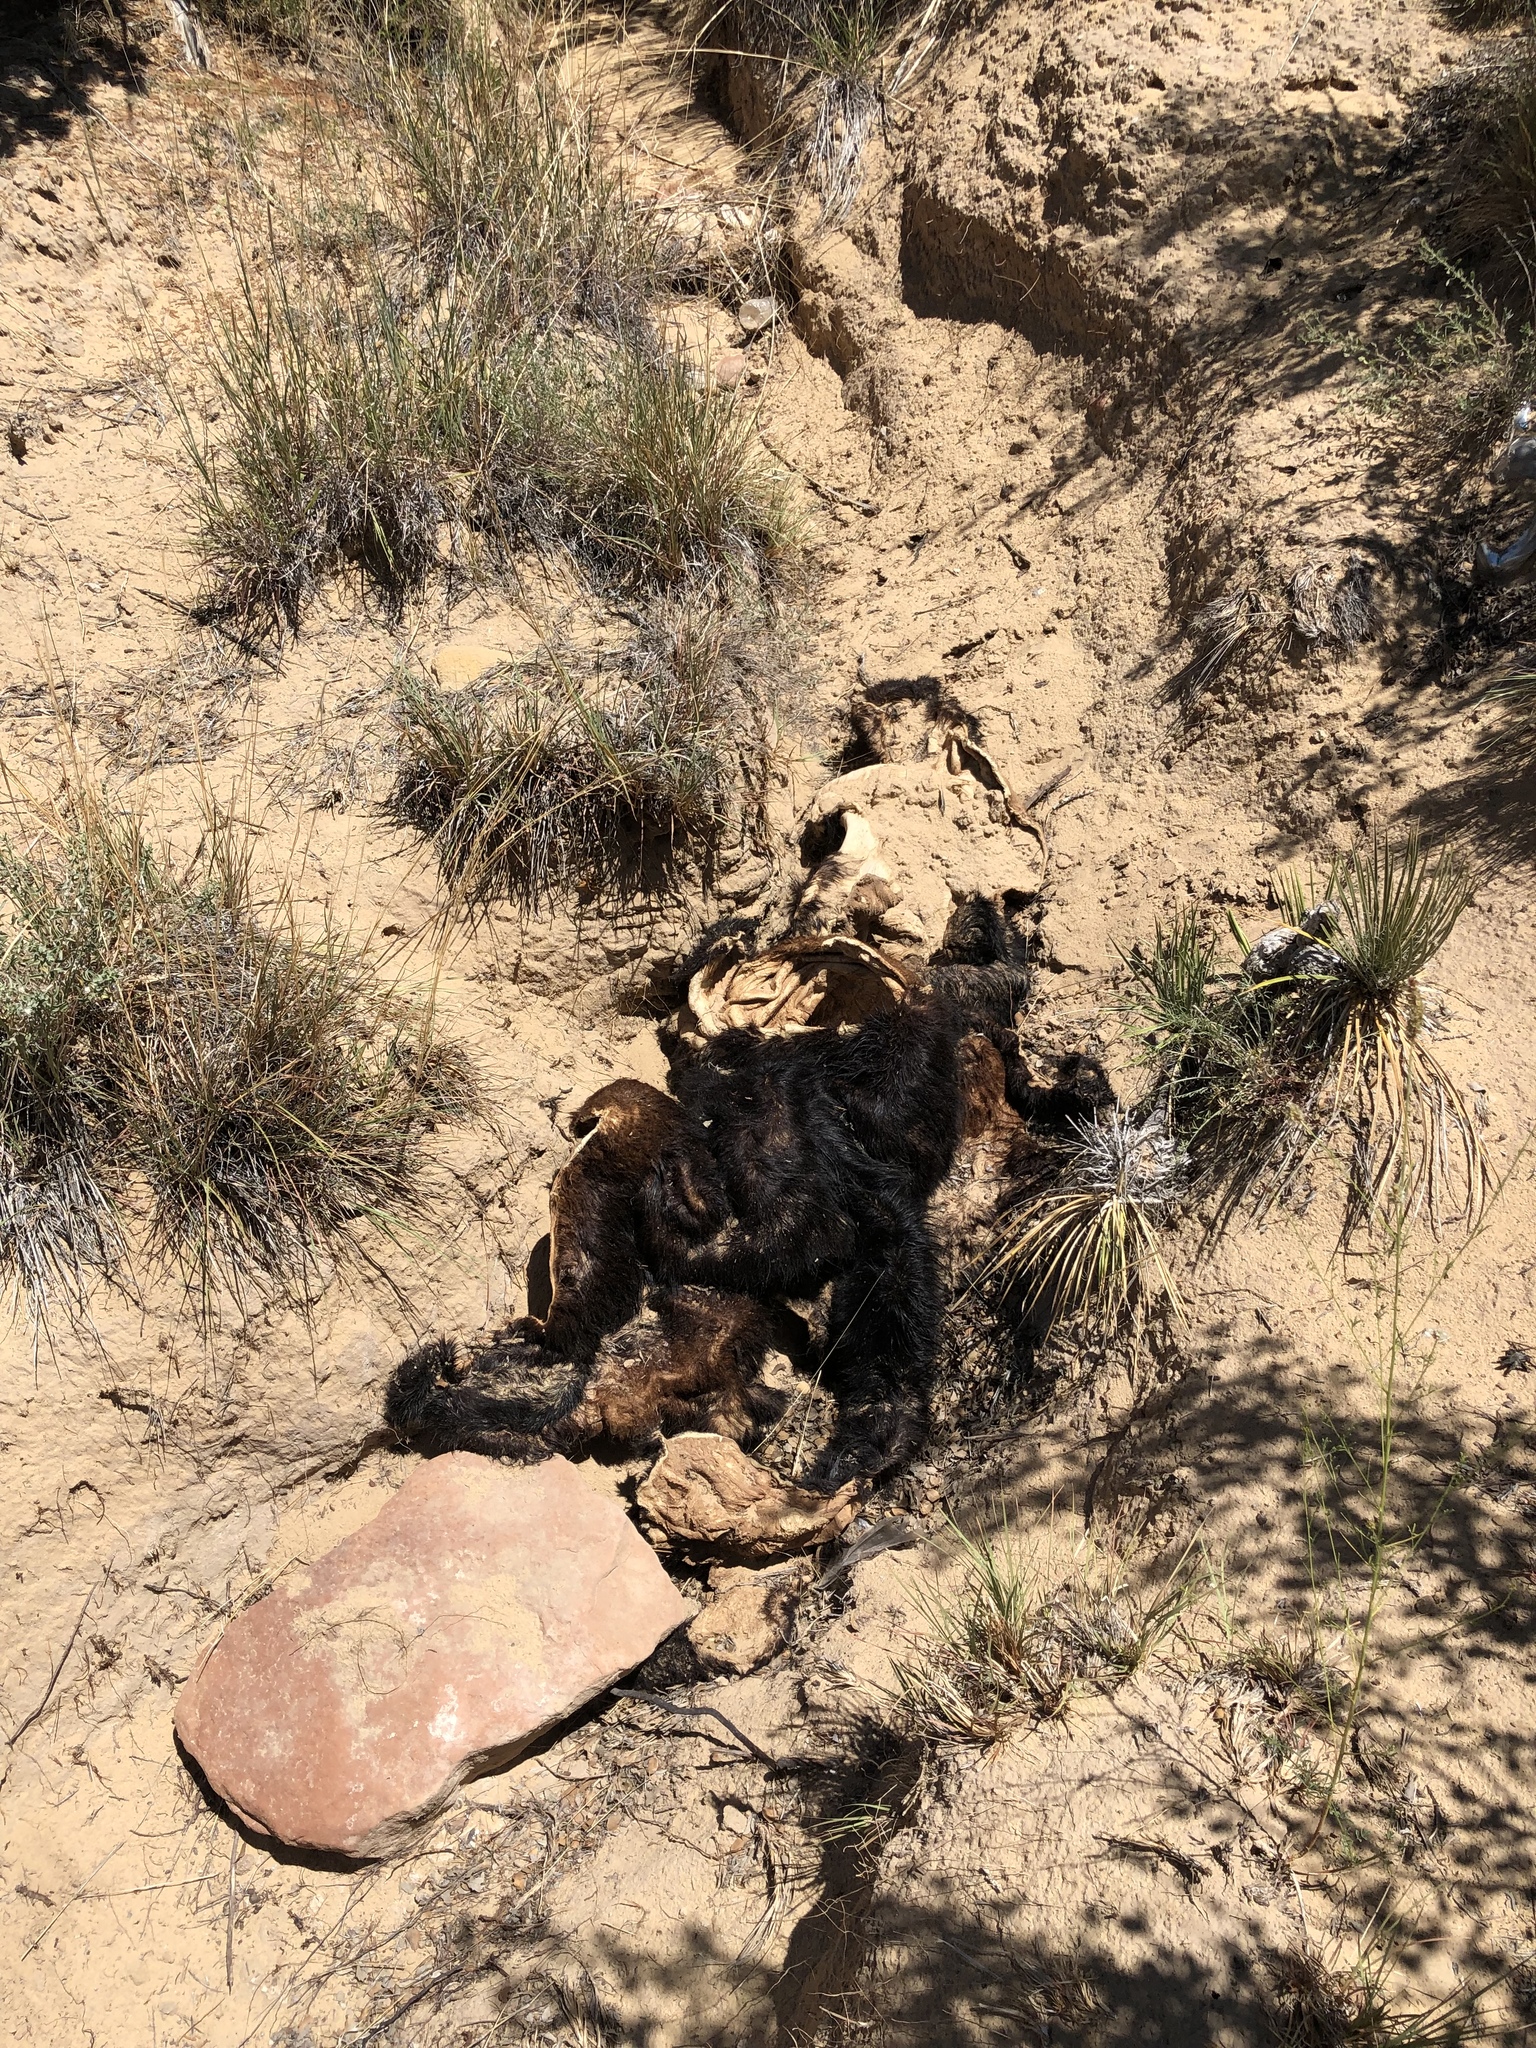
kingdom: Animalia
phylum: Chordata
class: Mammalia
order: Carnivora
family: Ursidae
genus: Ursus
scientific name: Ursus americanus
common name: American black bear
